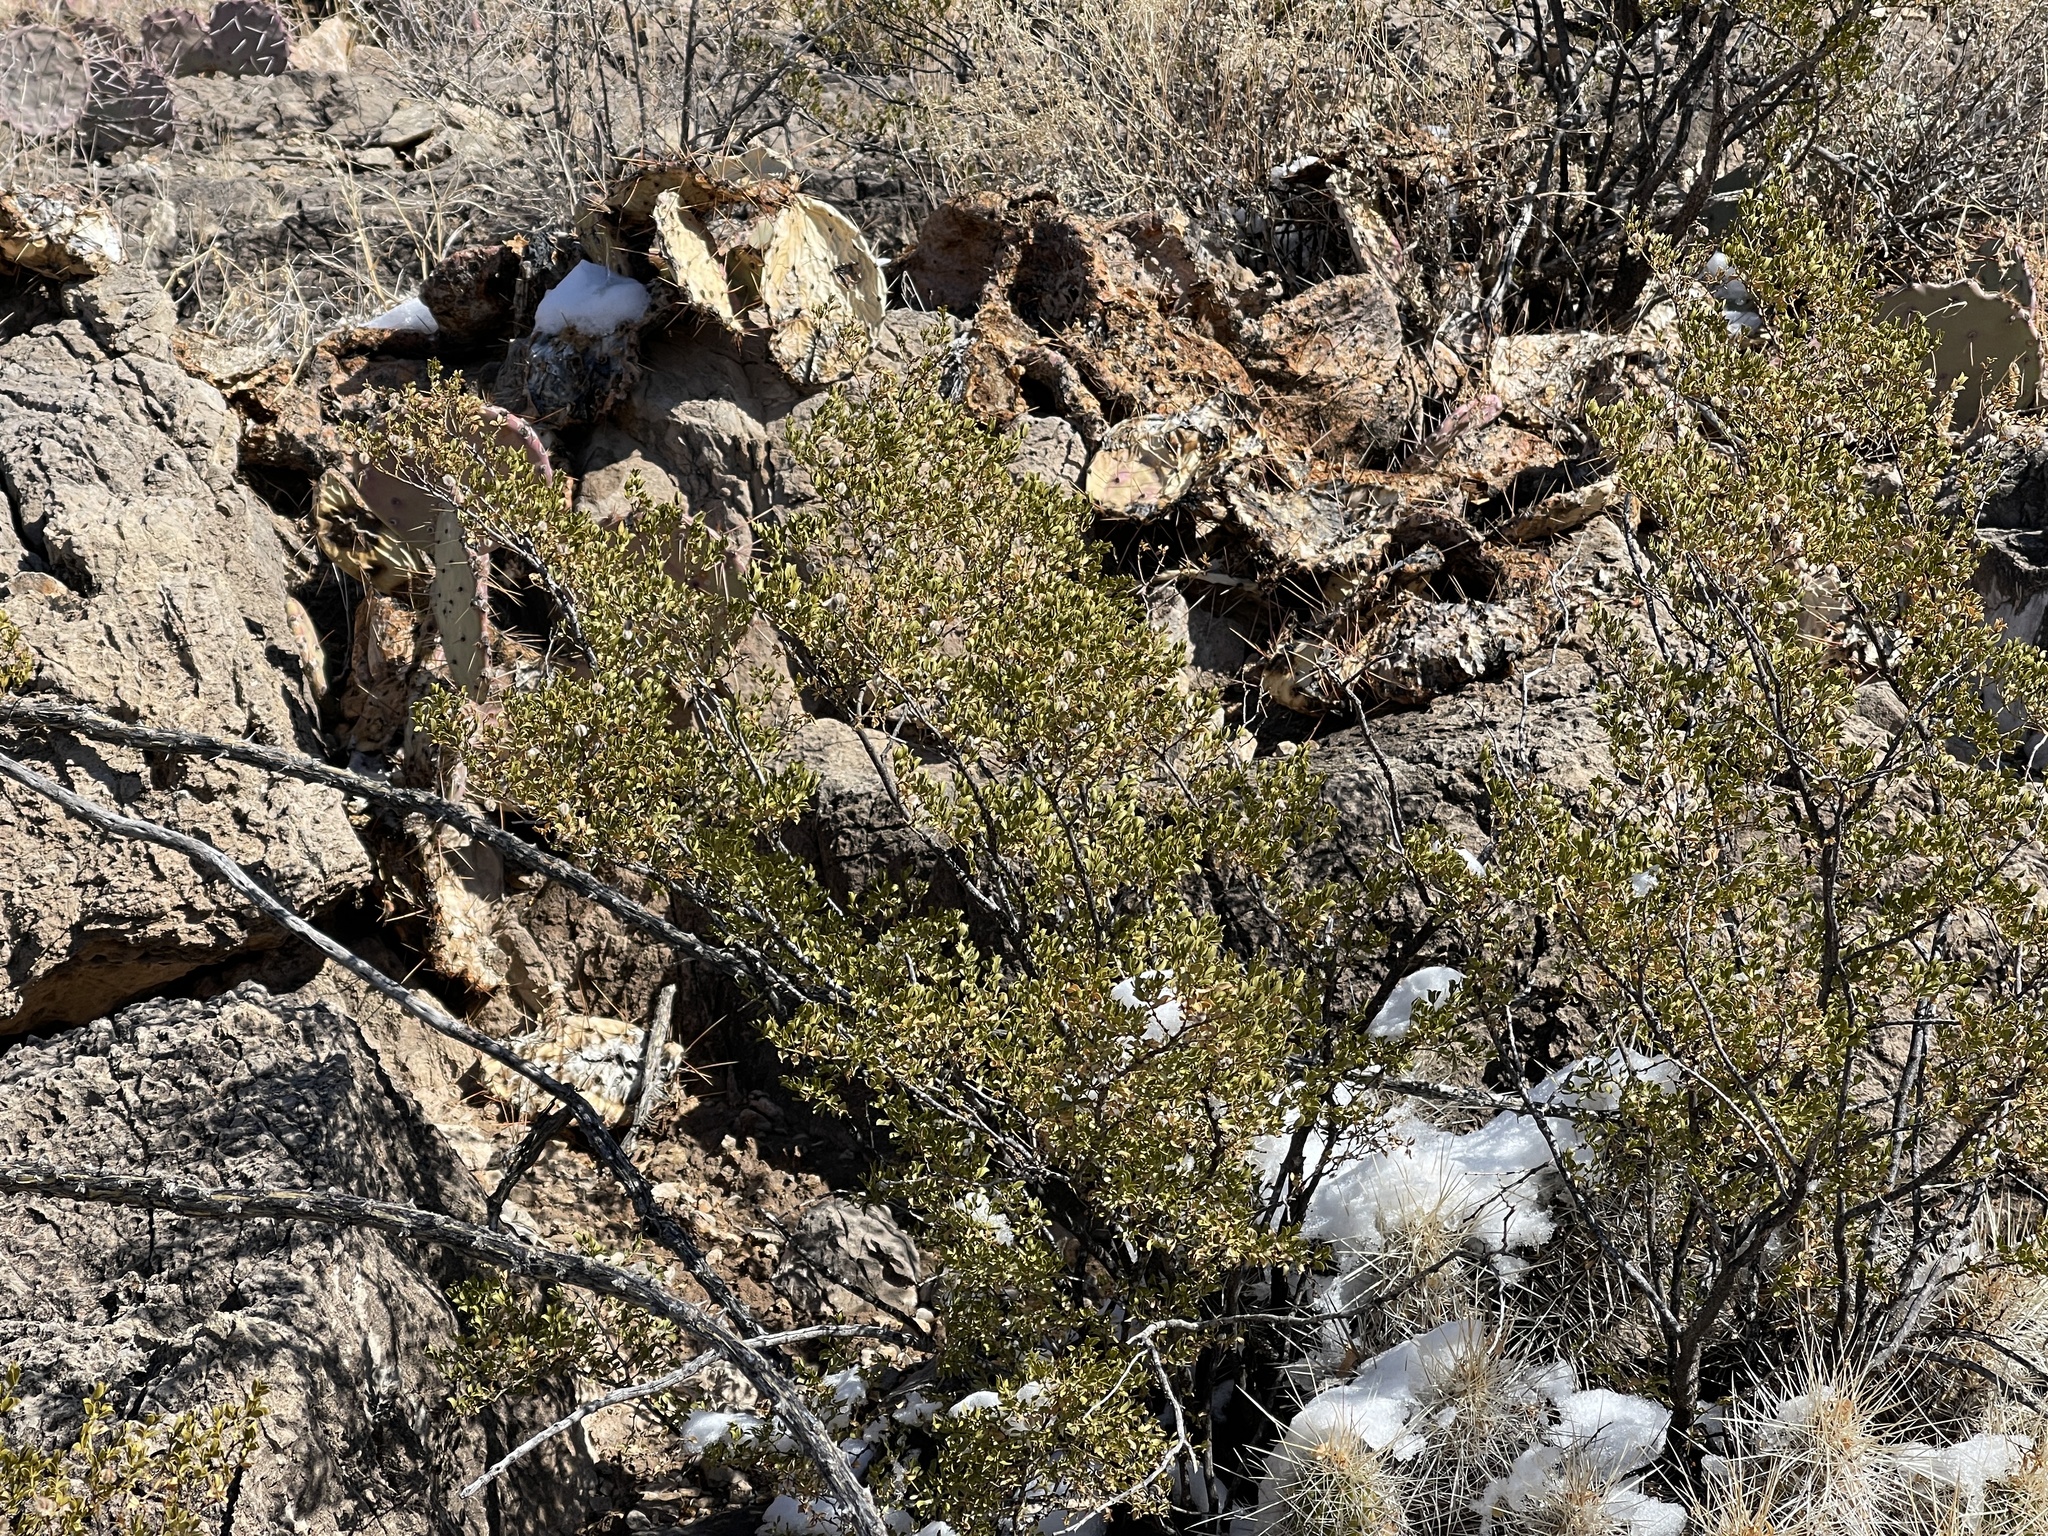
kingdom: Plantae
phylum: Tracheophyta
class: Magnoliopsida
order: Zygophyllales
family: Zygophyllaceae
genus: Larrea
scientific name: Larrea tridentata
